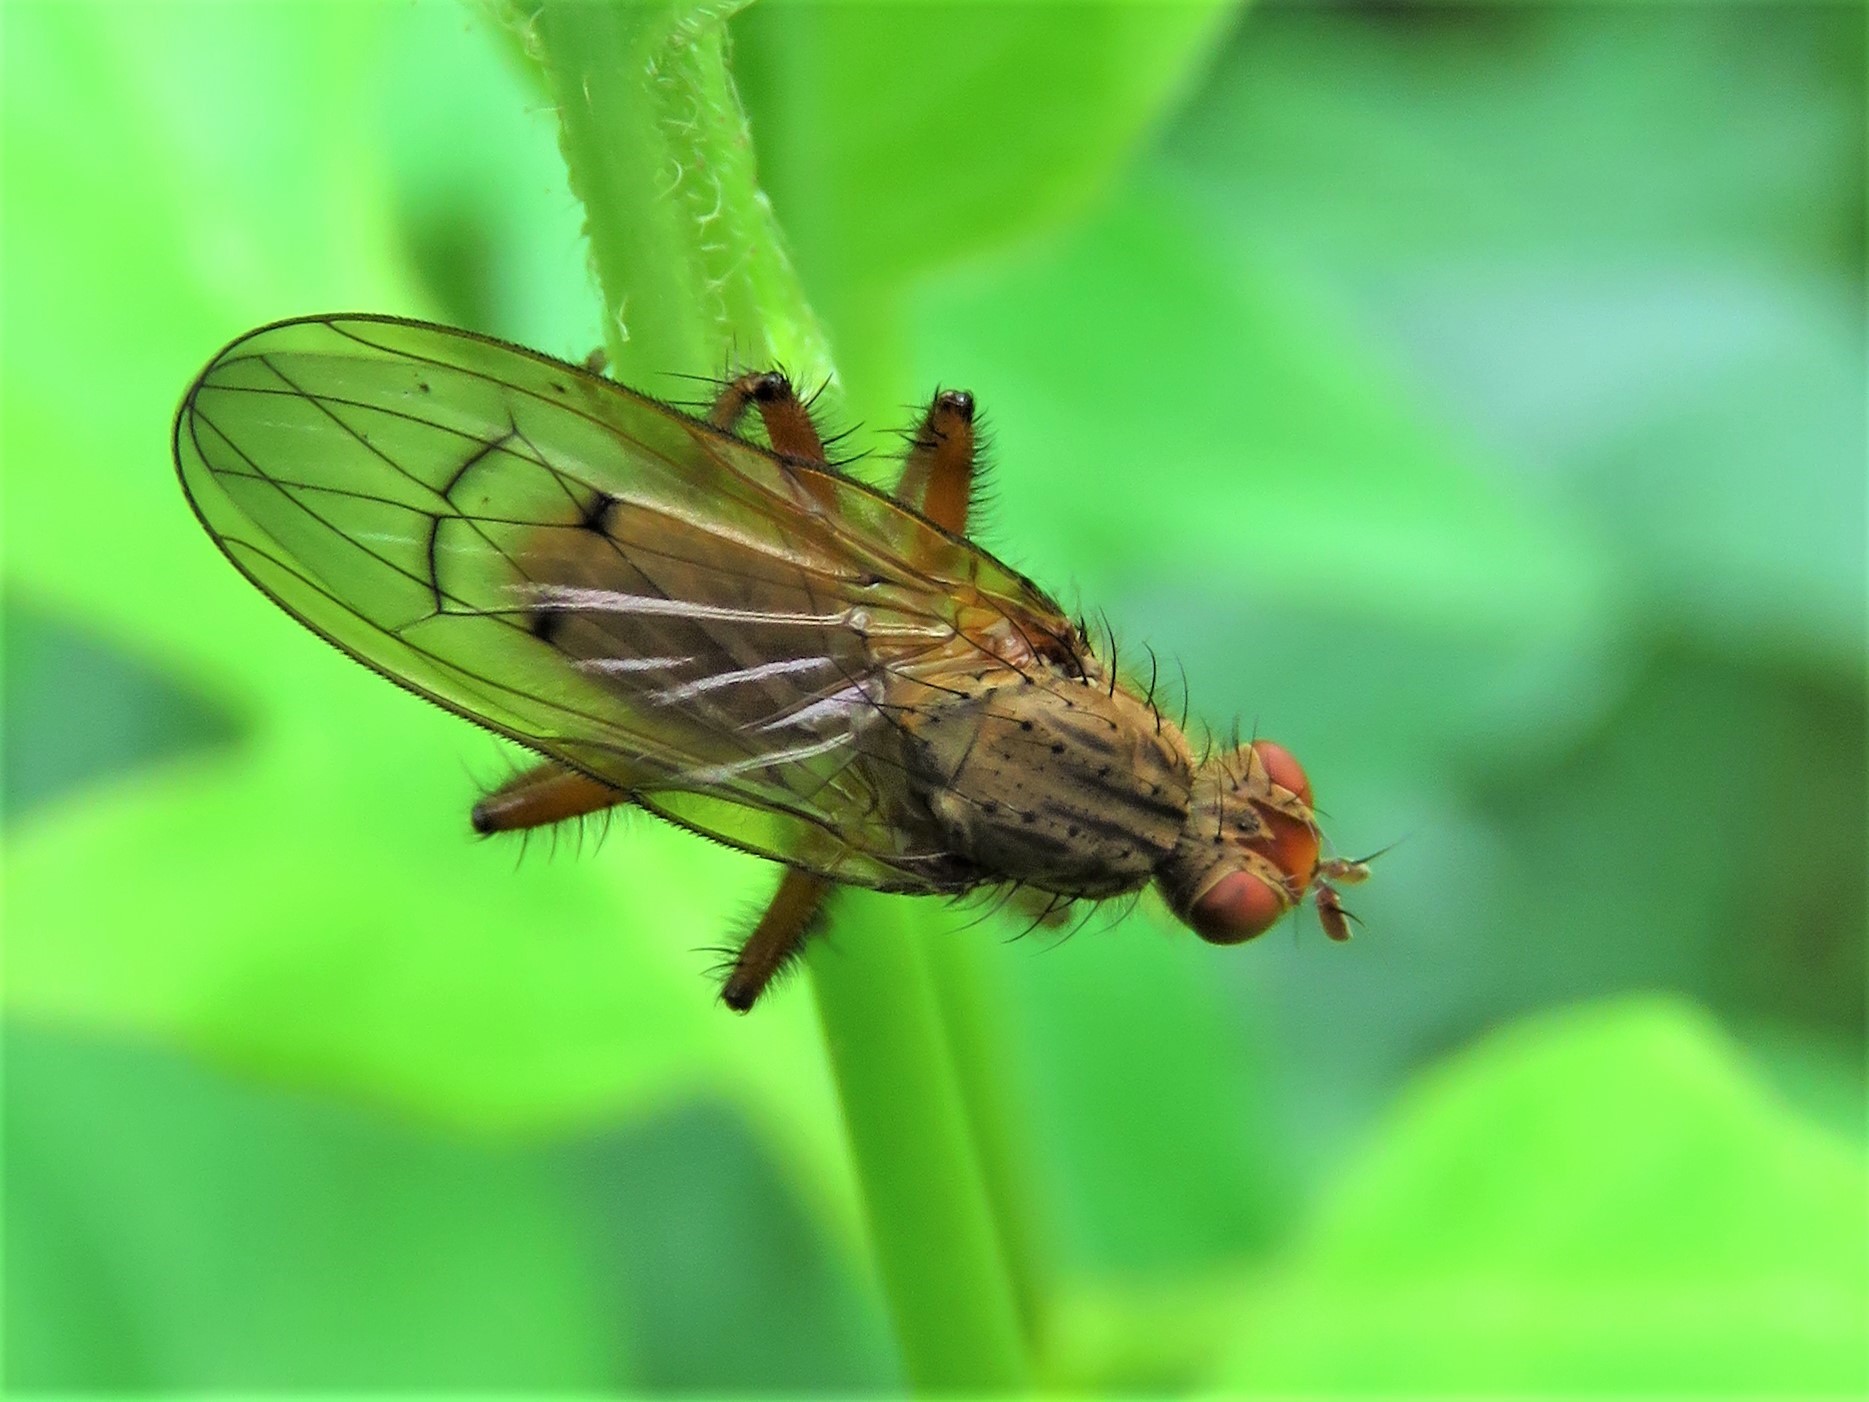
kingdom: Animalia
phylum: Arthropoda
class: Insecta
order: Diptera
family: Scathophagidae
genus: Scathophaga
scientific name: Scathophaga stercoraria
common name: Yellow dung fly
